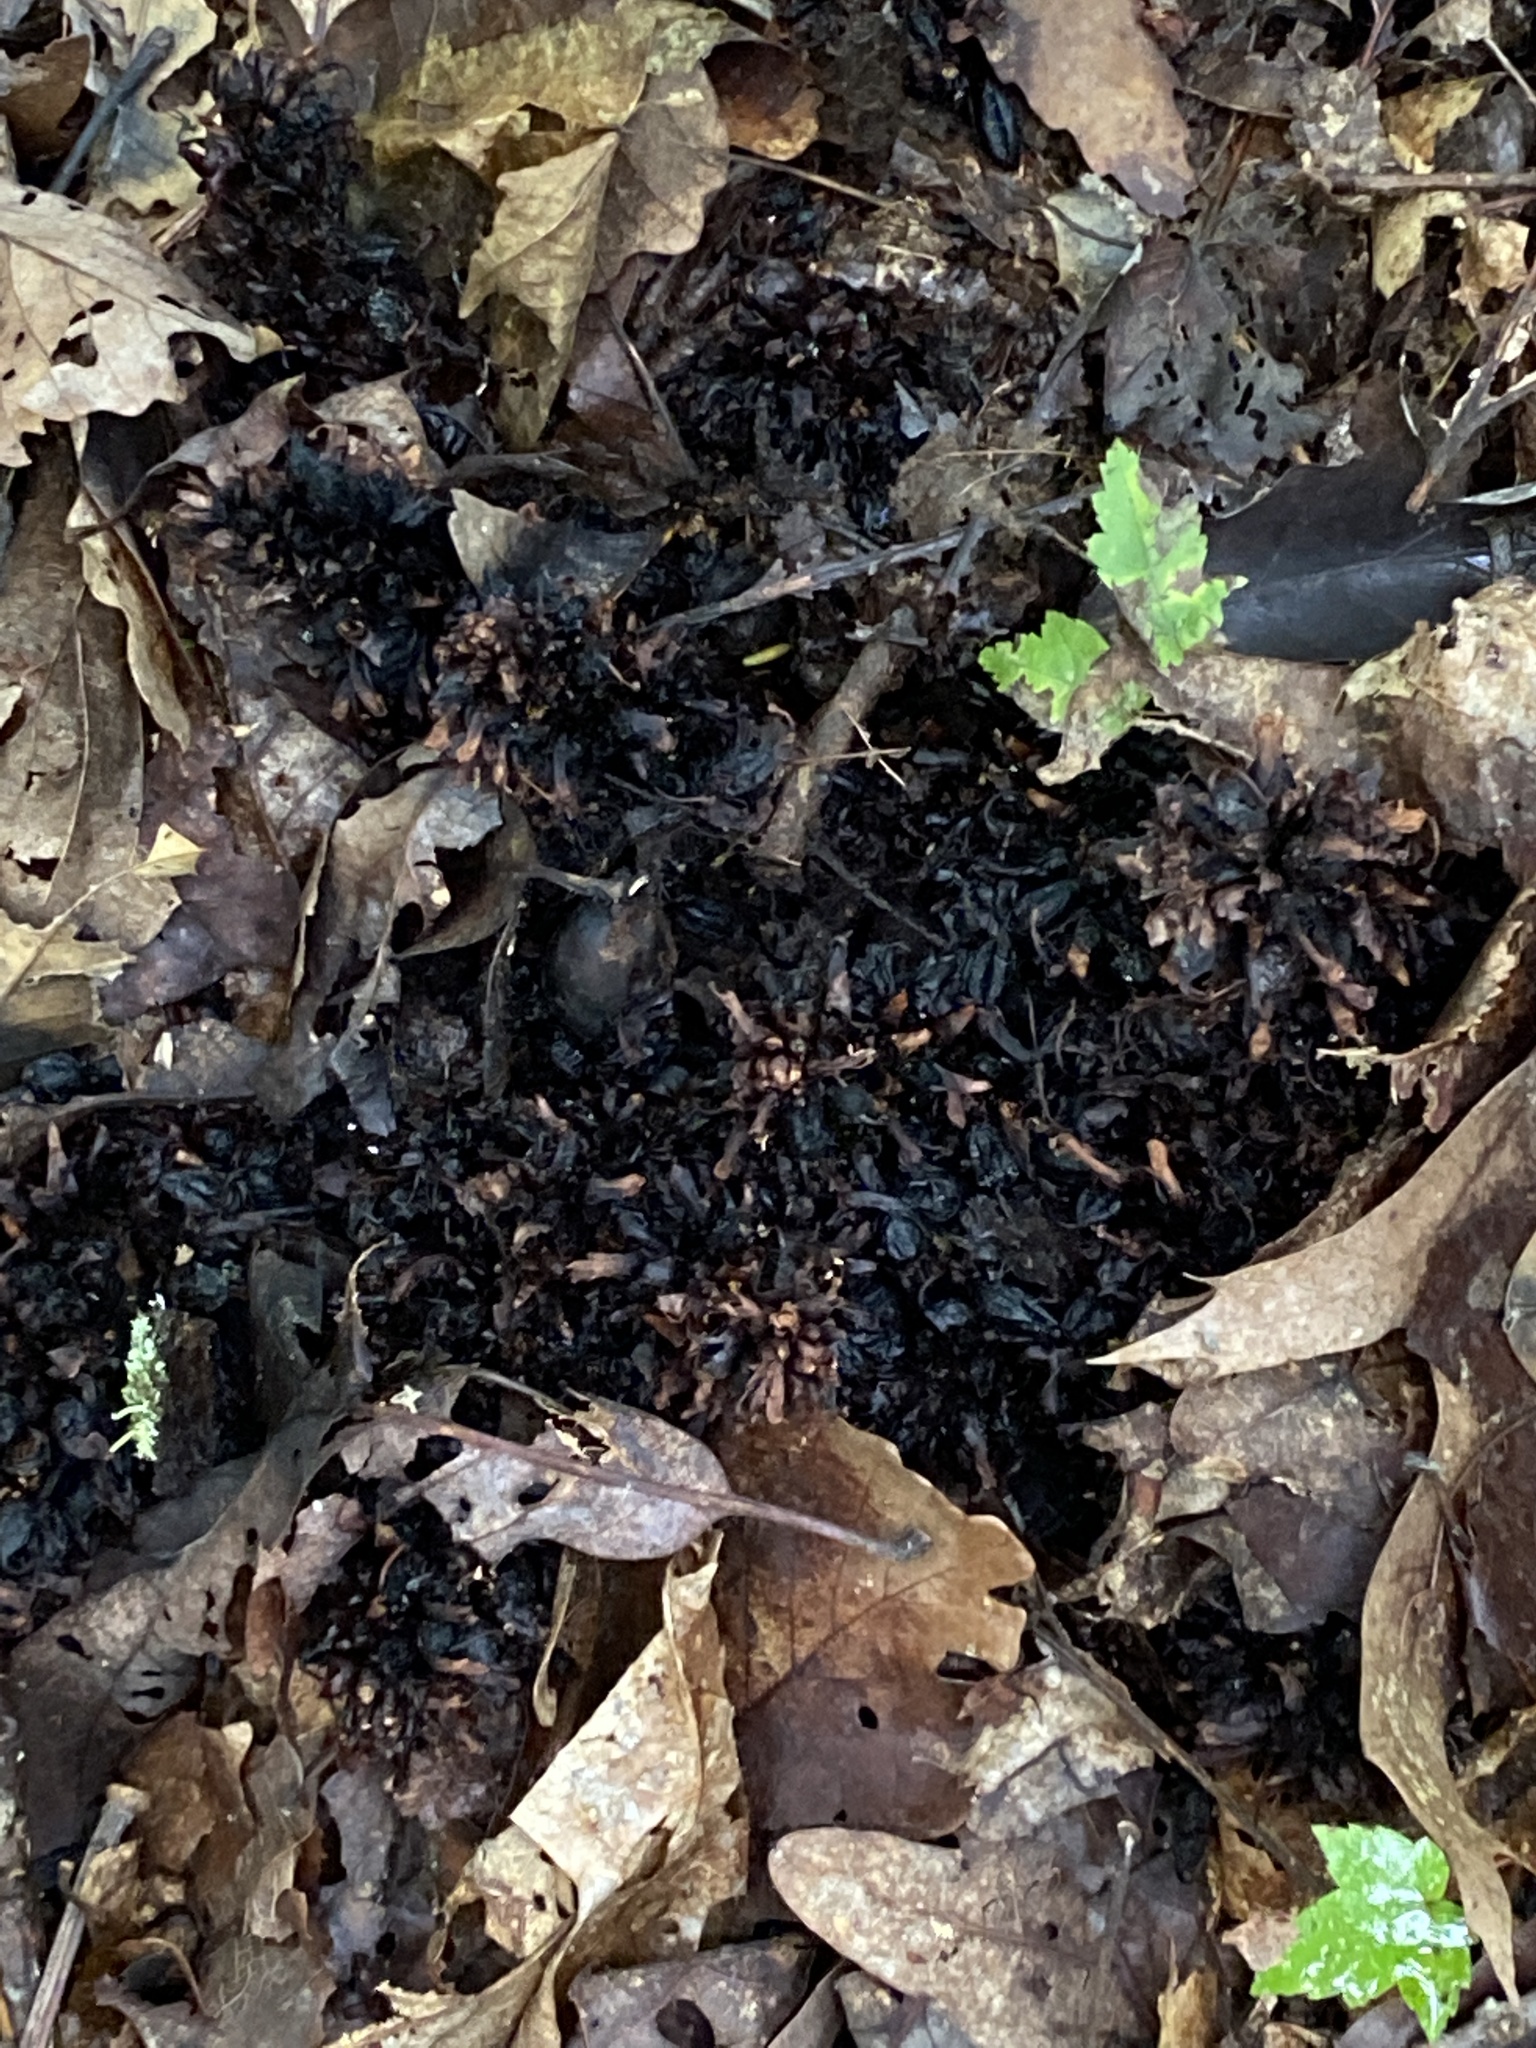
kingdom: Plantae
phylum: Tracheophyta
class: Magnoliopsida
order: Lamiales
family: Orobanchaceae
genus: Conopholis
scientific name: Conopholis americana
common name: American cancer-root
